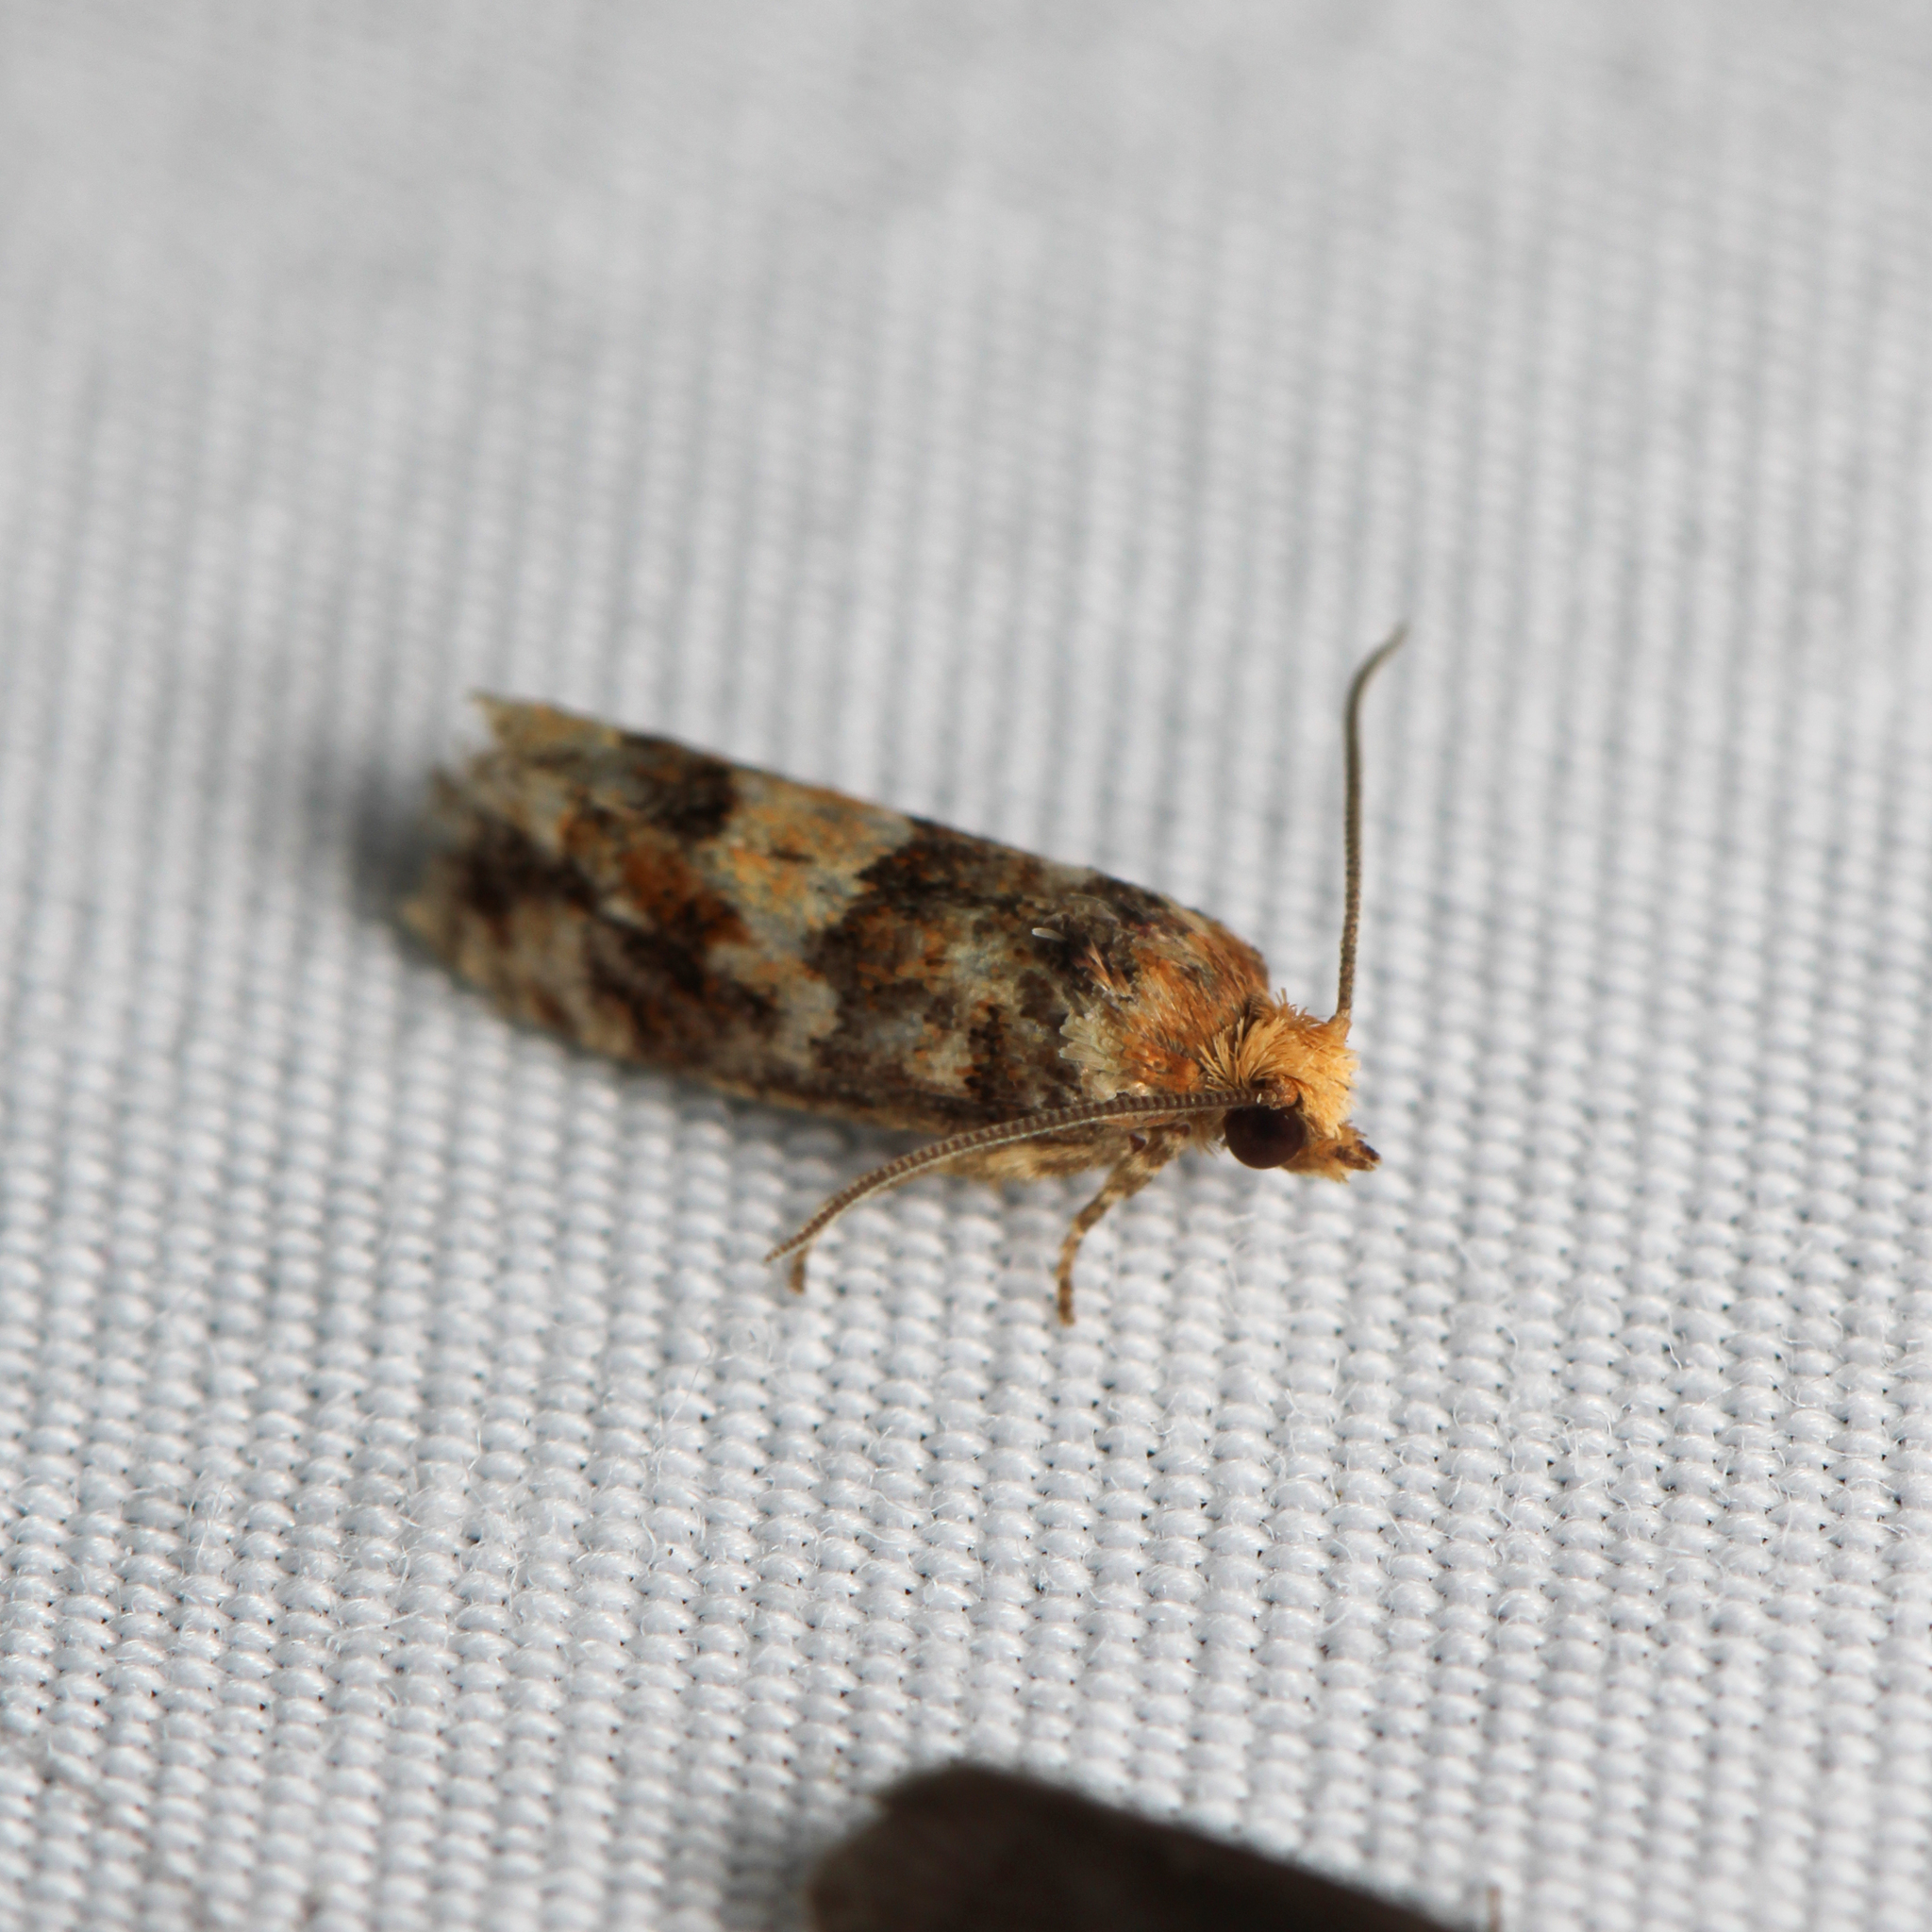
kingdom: Animalia
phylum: Arthropoda
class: Insecta
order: Lepidoptera
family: Tortricidae
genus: Eucopina
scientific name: Eucopina tocullionana
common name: White pinecone borer moth
